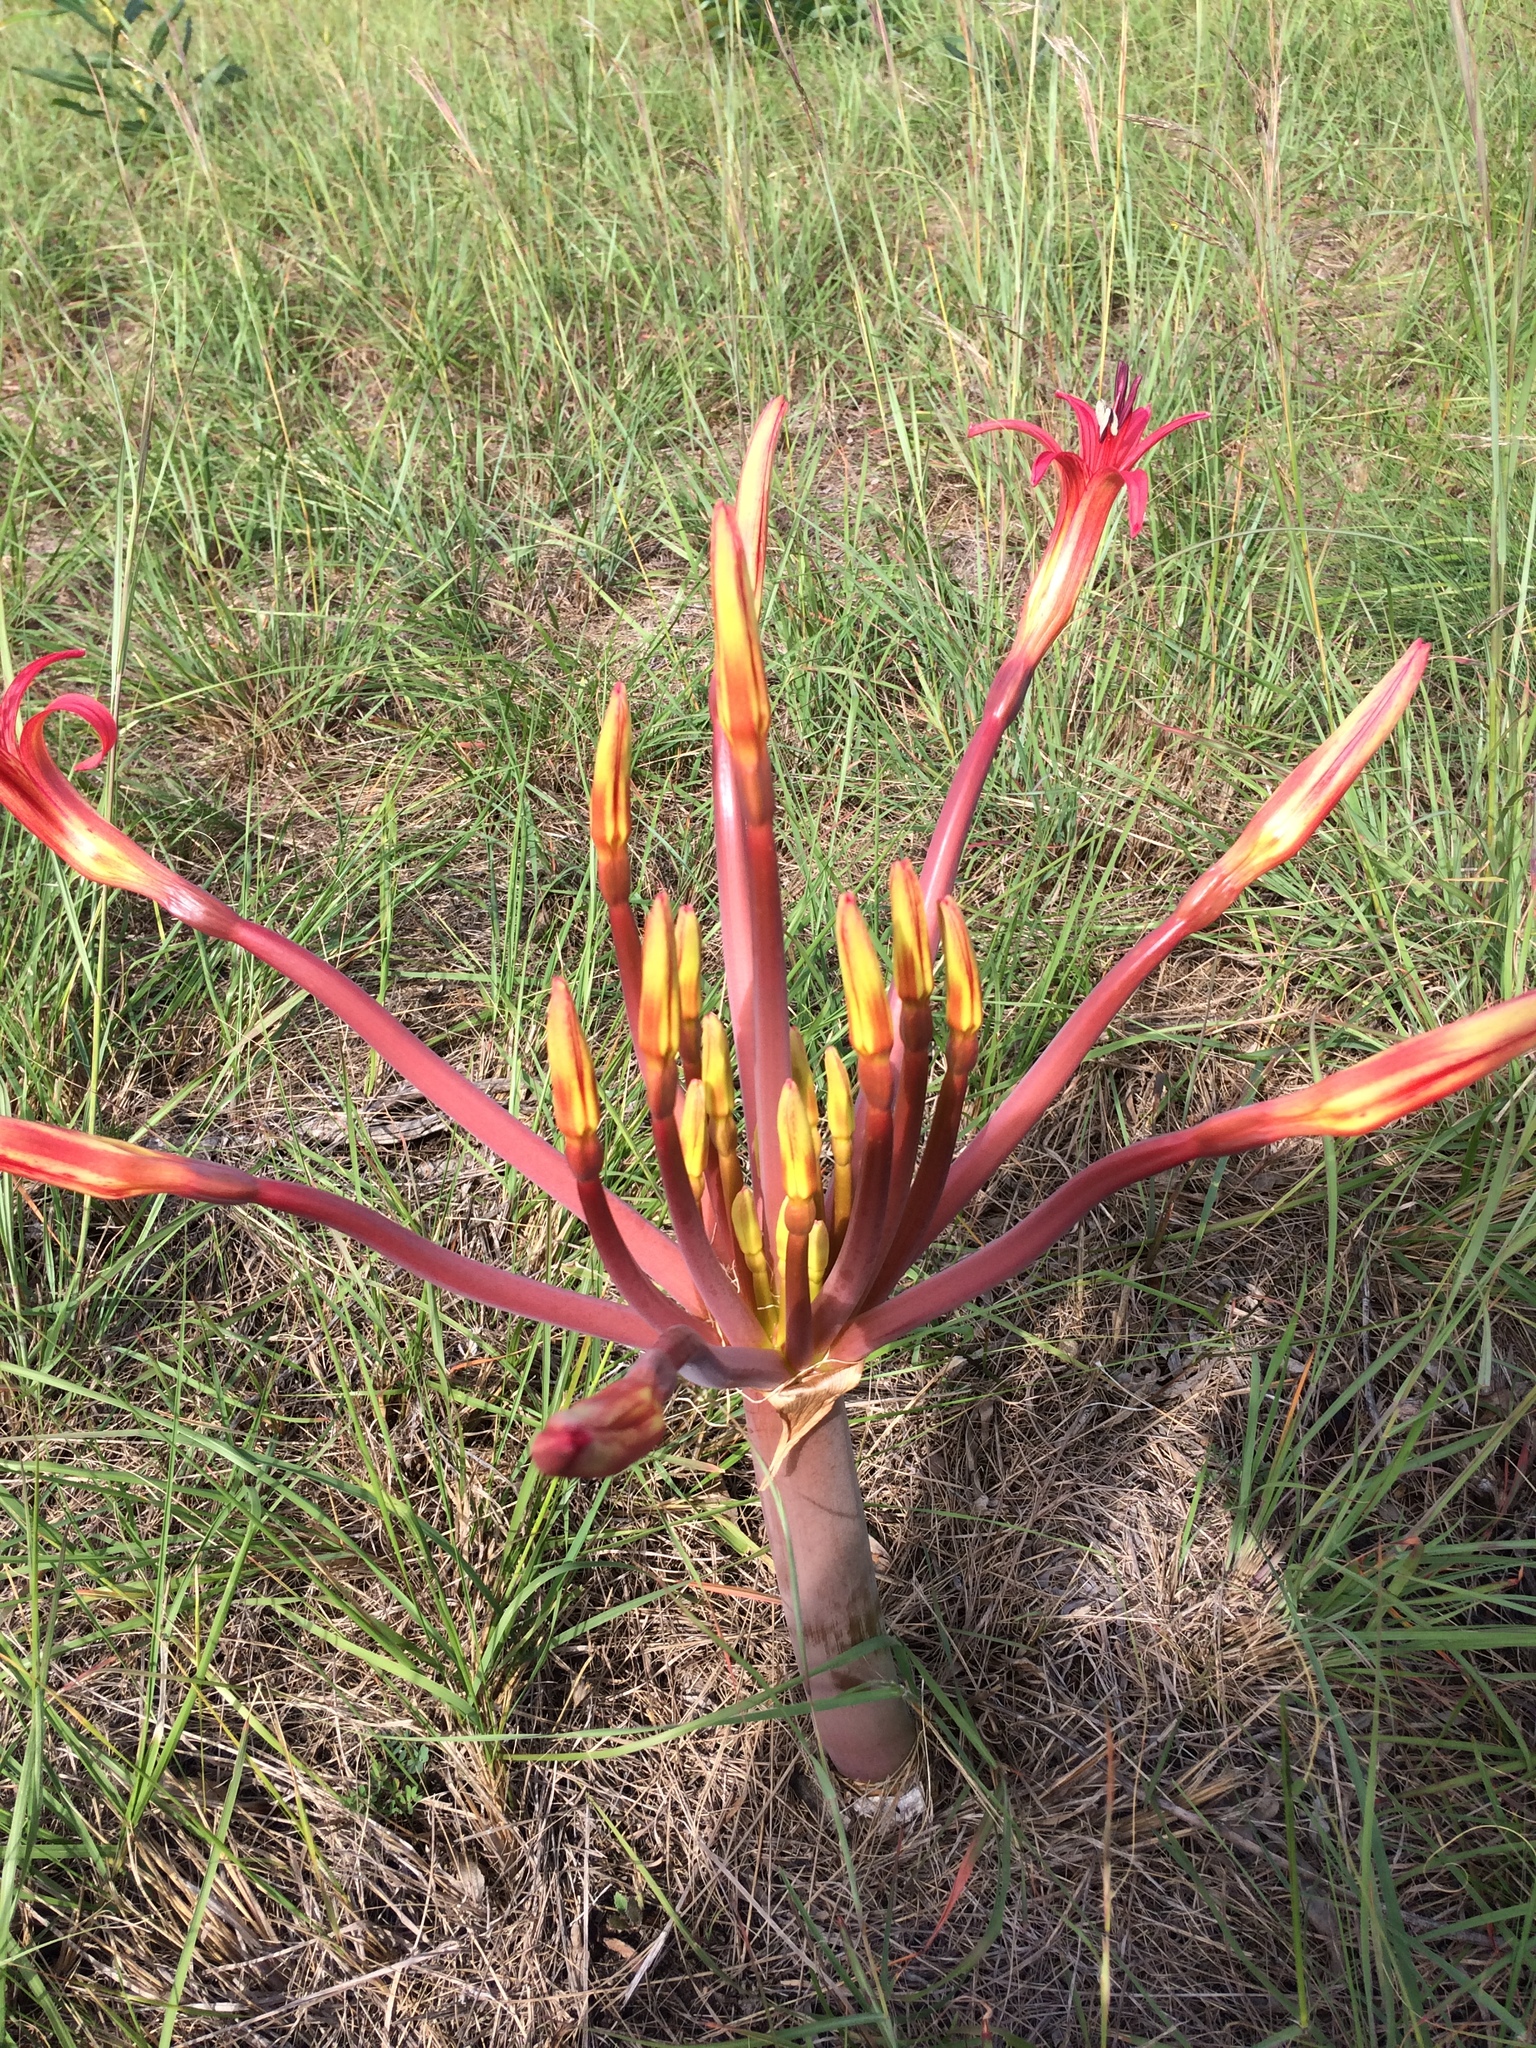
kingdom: Plantae
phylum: Tracheophyta
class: Liliopsida
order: Asparagales
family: Amaryllidaceae
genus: Brunsvigia
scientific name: Brunsvigia litoralis
